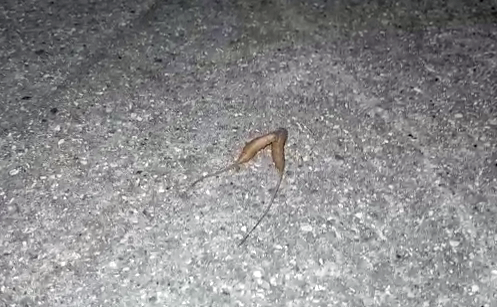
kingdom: Animalia
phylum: Arthropoda
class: Insecta
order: Diptera
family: Syrphidae
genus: Eristalis
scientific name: Eristalis tenax
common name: Drone fly
